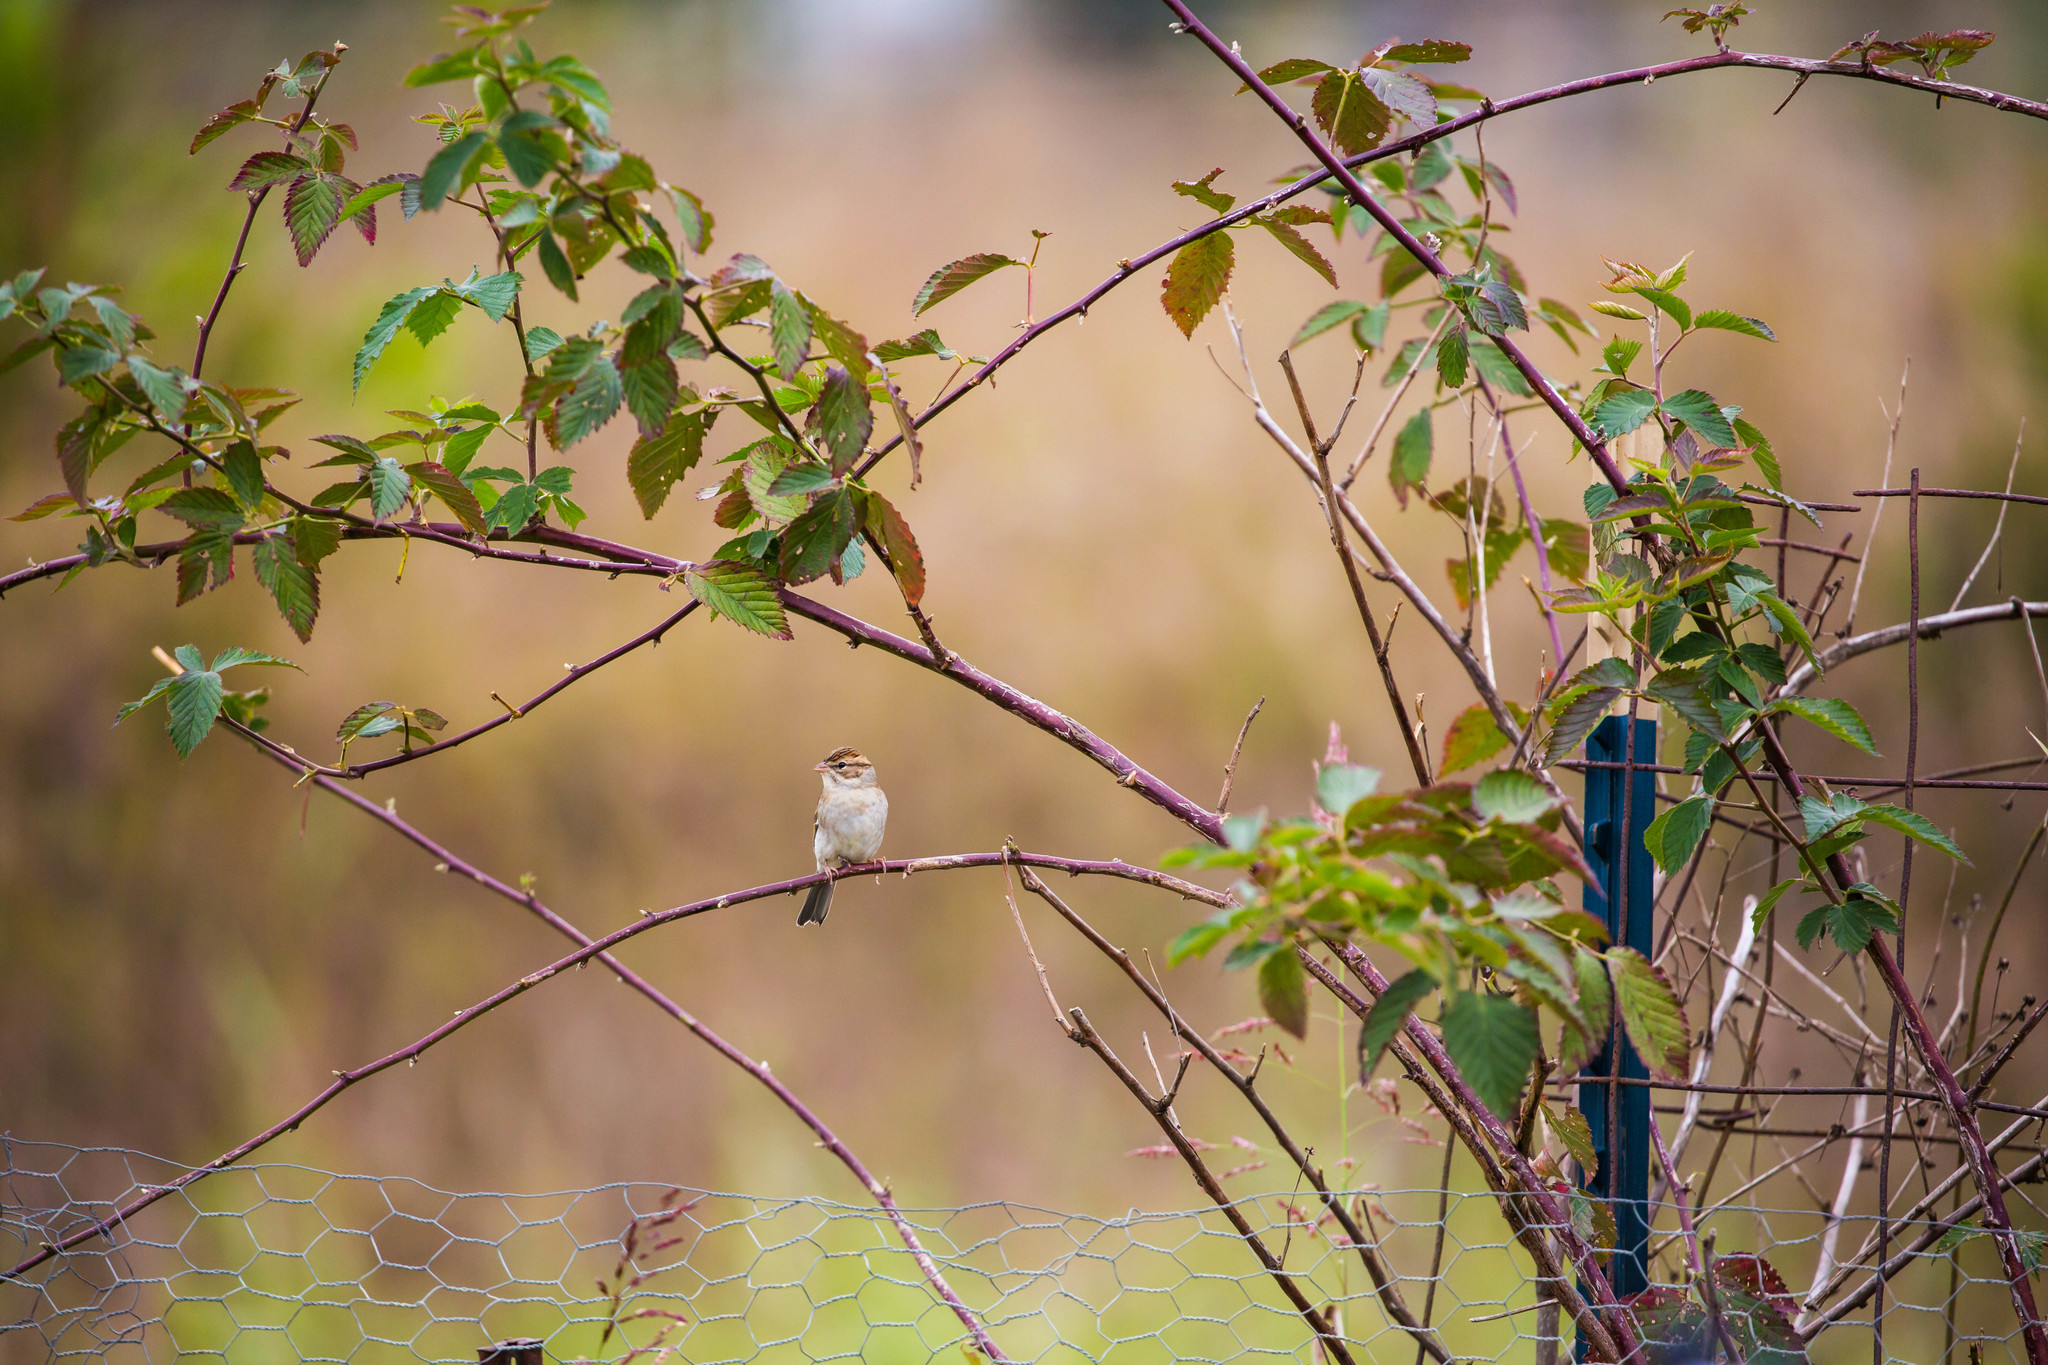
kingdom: Animalia
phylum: Chordata
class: Aves
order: Passeriformes
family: Passerellidae
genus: Spizella
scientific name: Spizella passerina
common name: Chipping sparrow
